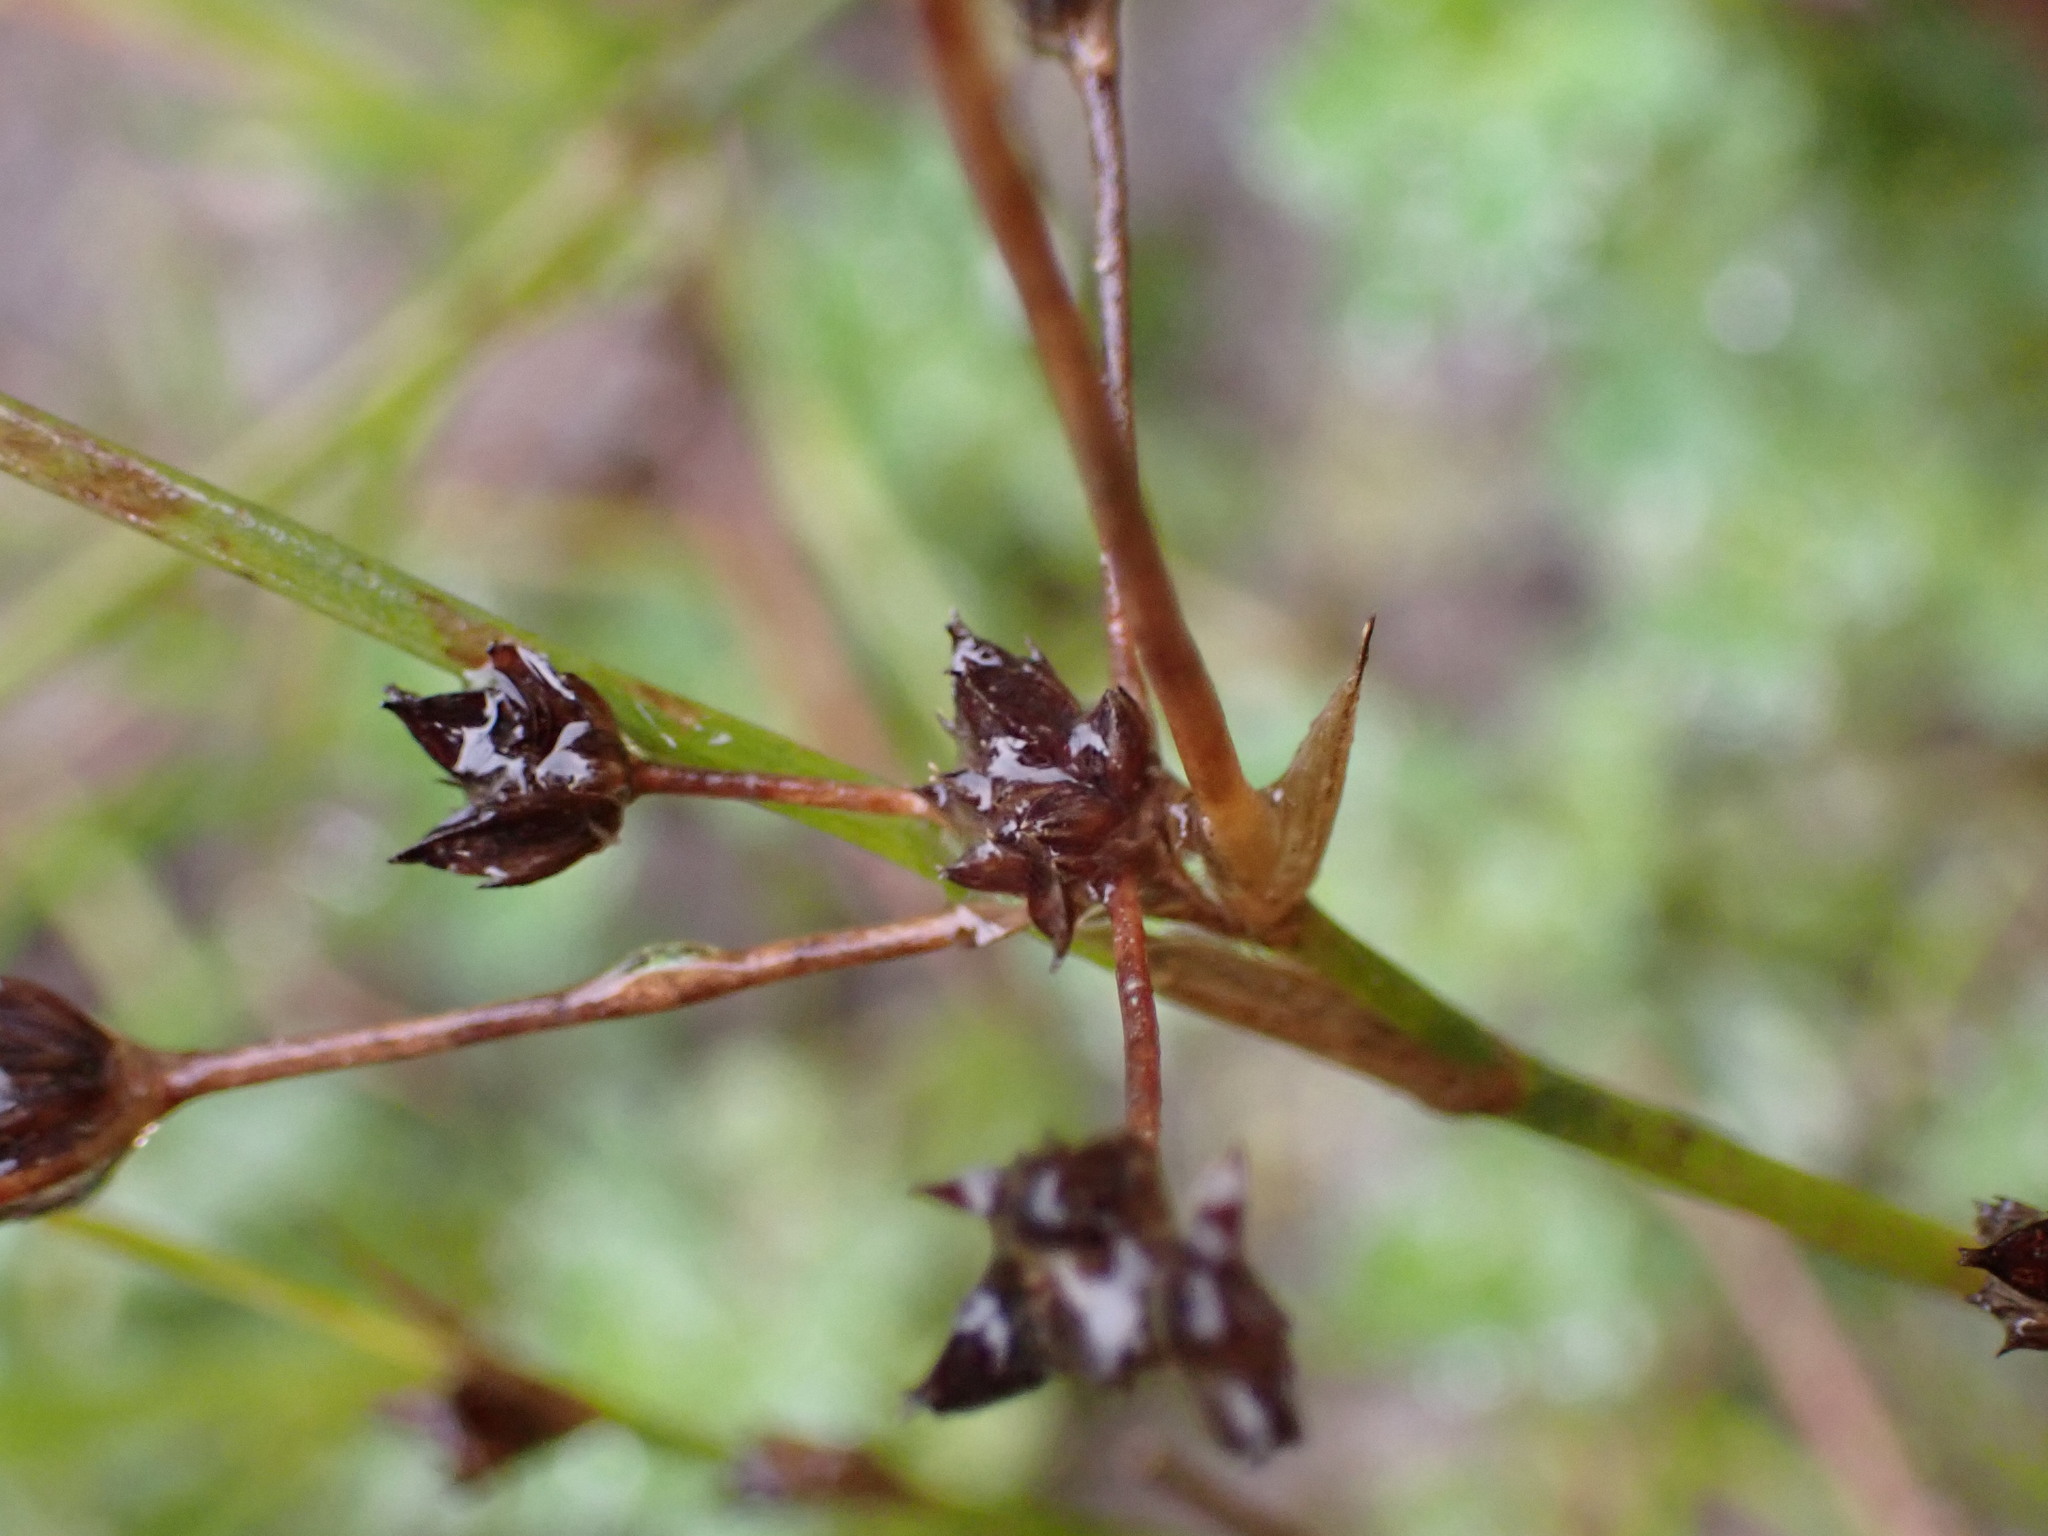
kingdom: Plantae
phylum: Tracheophyta
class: Liliopsida
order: Poales
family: Juncaceae
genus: Juncus
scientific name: Juncus articulatus
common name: Jointed rush
